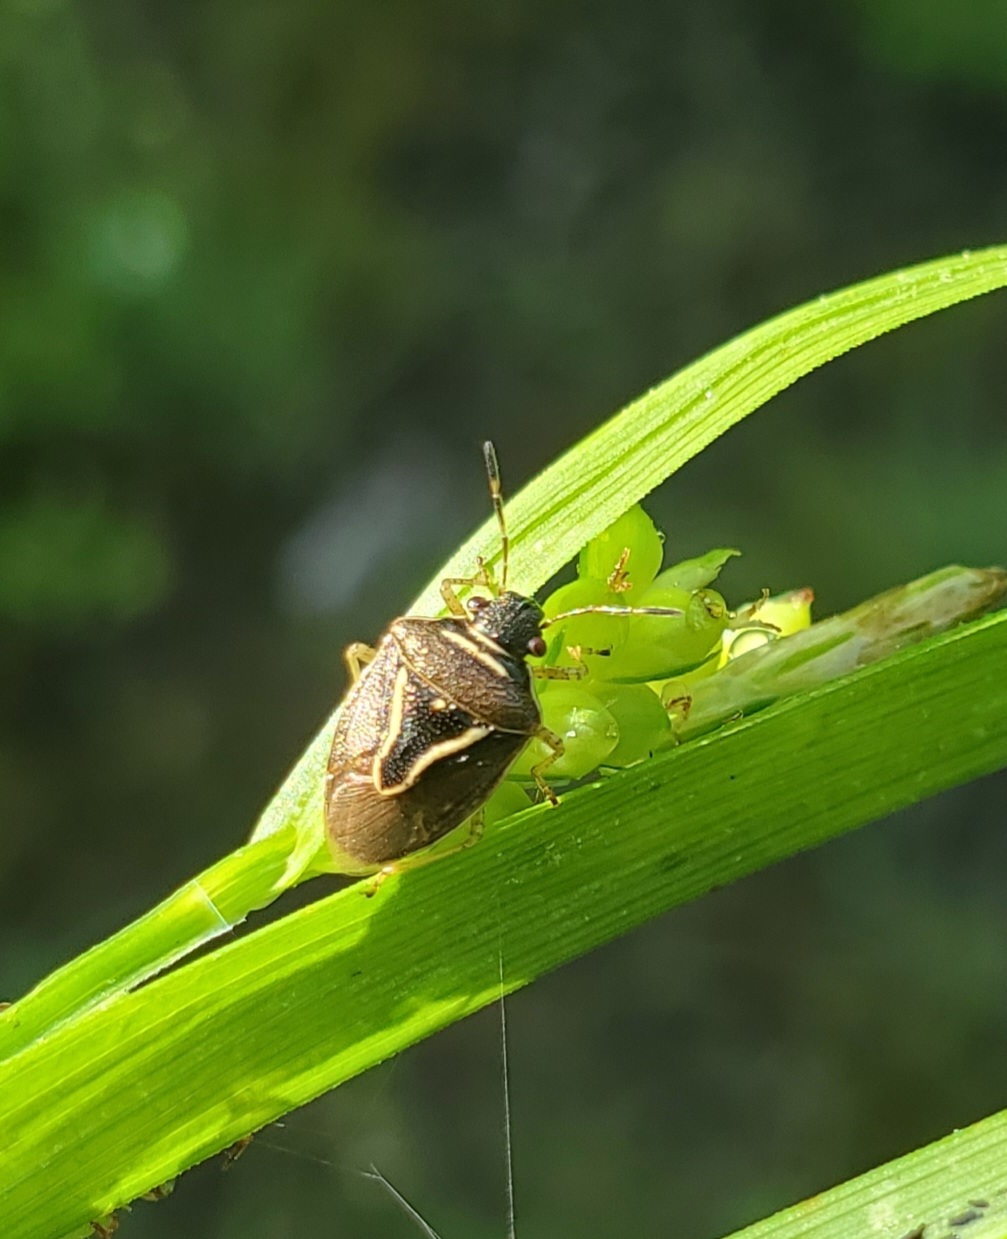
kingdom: Animalia
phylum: Arthropoda
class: Insecta
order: Hemiptera
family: Pentatomidae
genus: Mormidea
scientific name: Mormidea lugens
